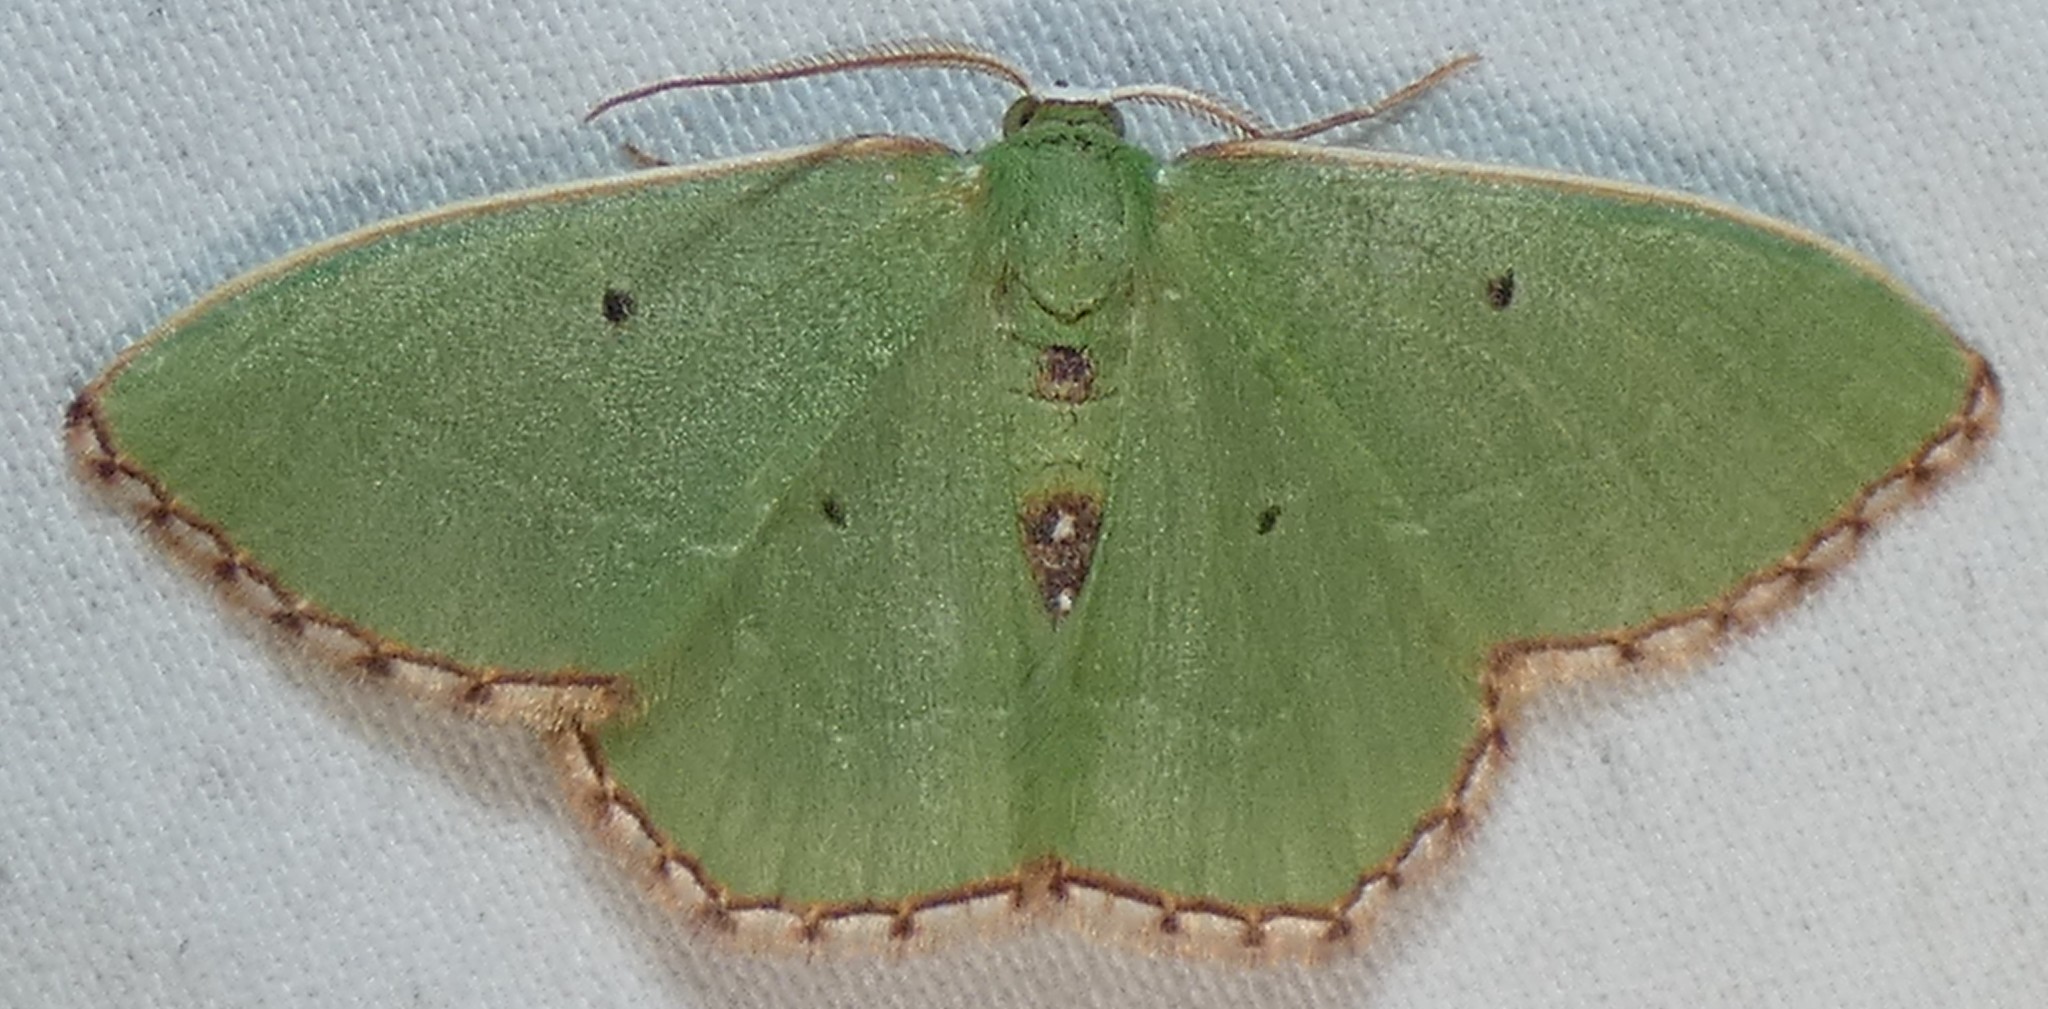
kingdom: Animalia
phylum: Arthropoda
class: Insecta
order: Lepidoptera
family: Geometridae
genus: Nemoria
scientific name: Nemoria saturiba
